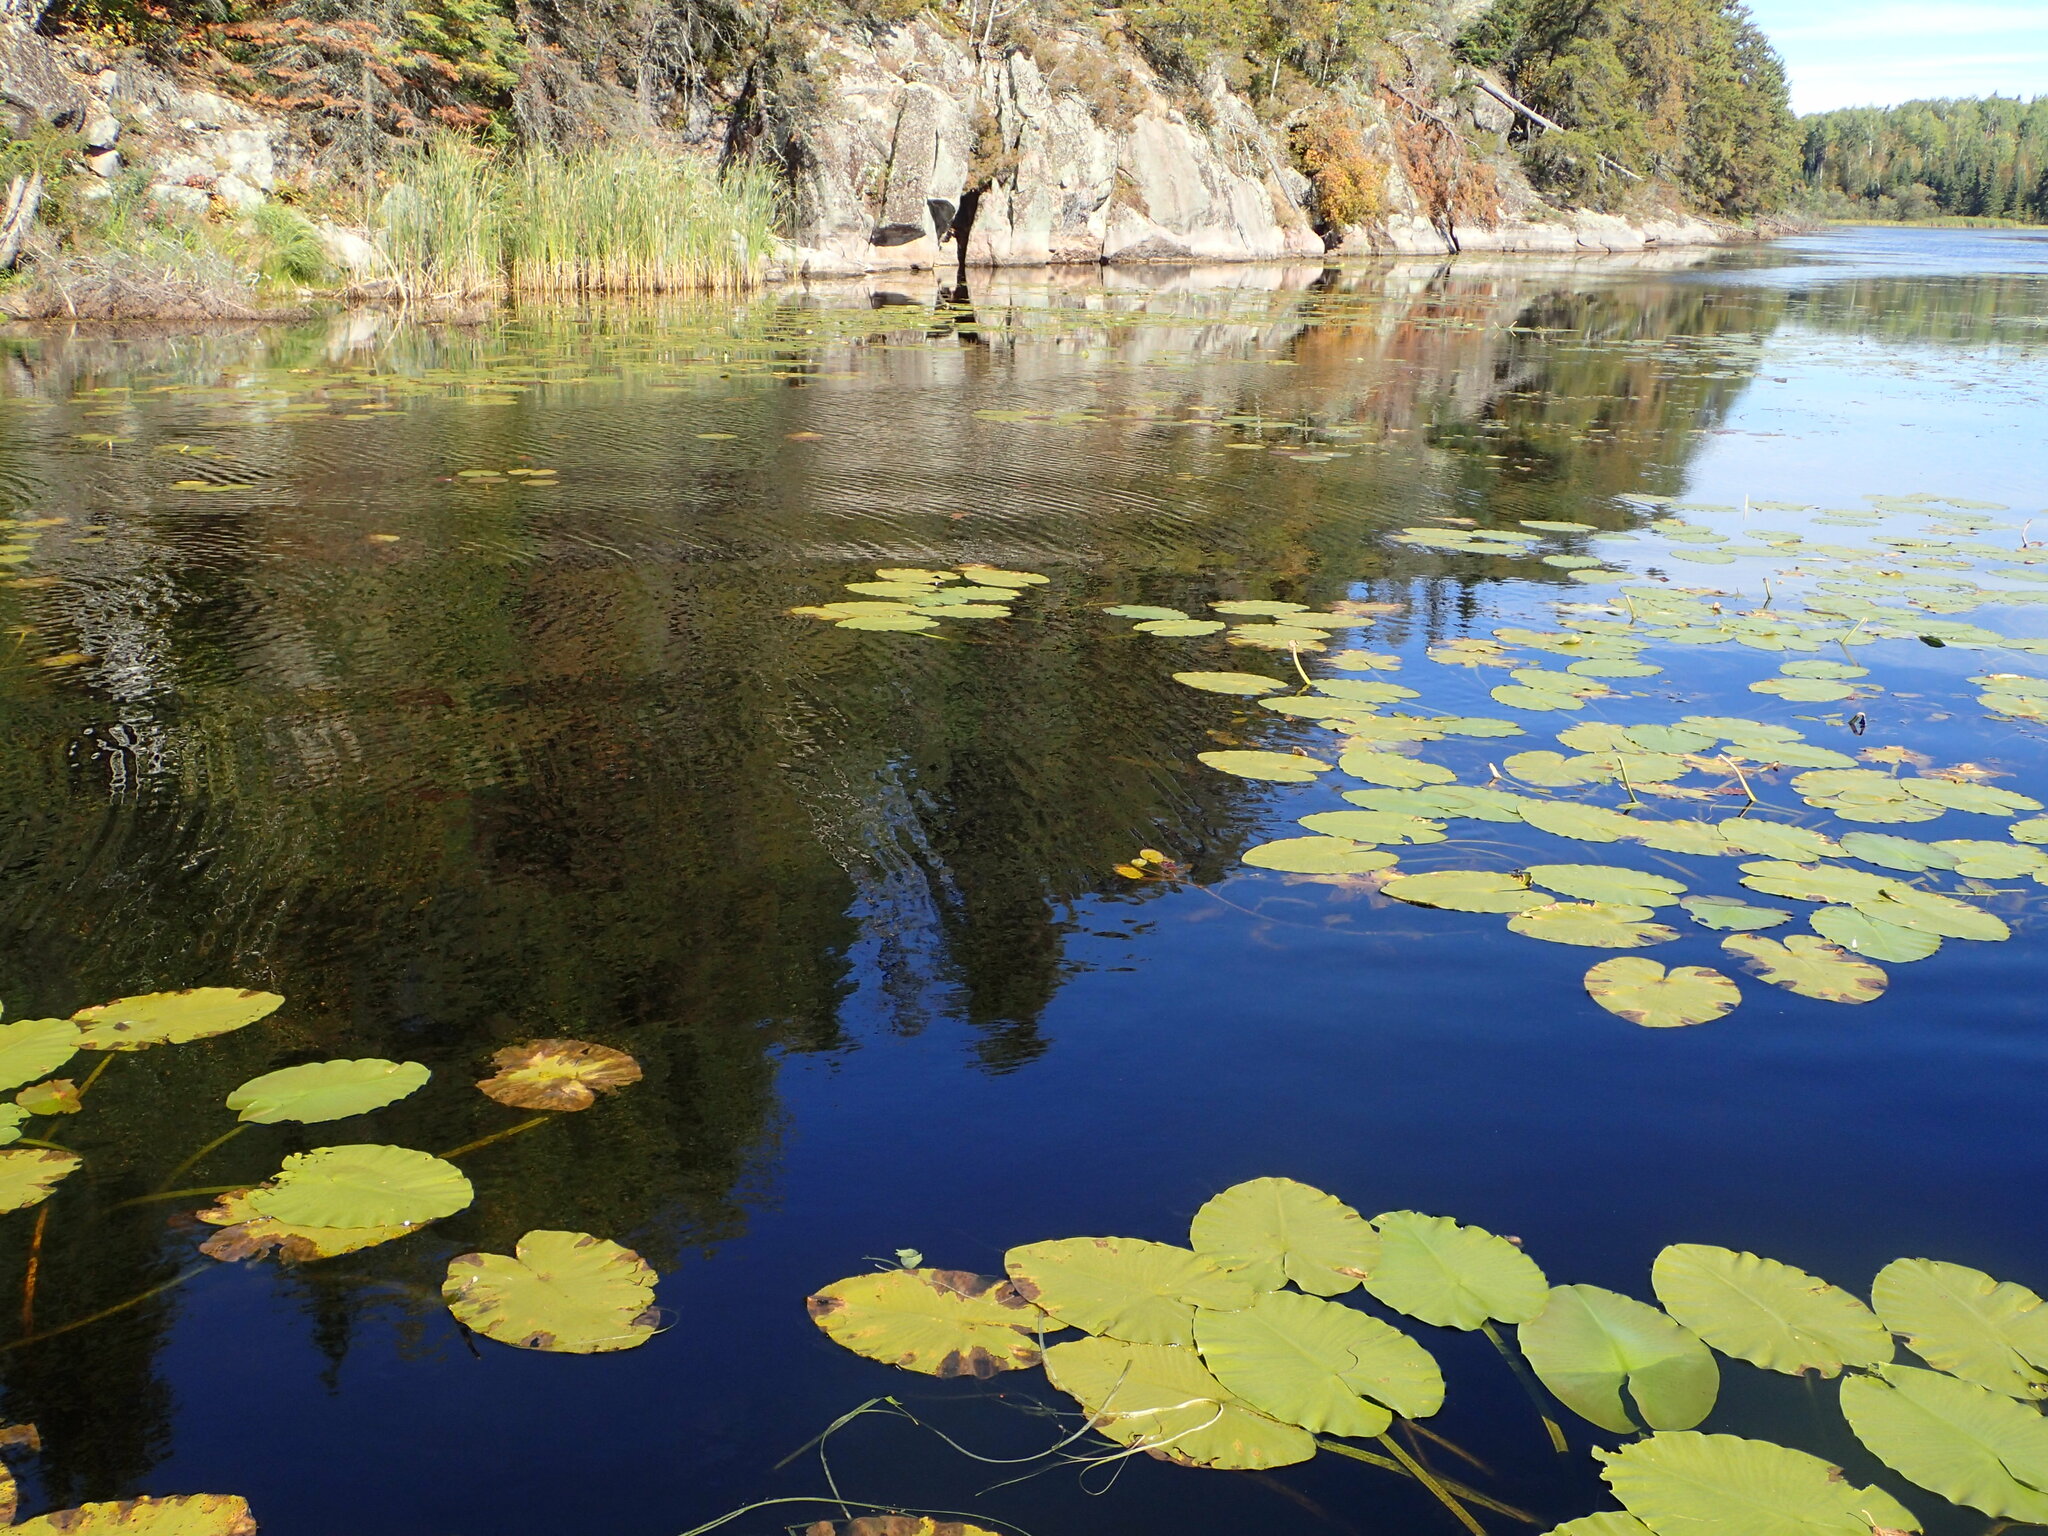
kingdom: Plantae
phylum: Tracheophyta
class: Magnoliopsida
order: Nymphaeales
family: Nymphaeaceae
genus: Nuphar
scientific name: Nuphar variegata
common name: Beaver-root
